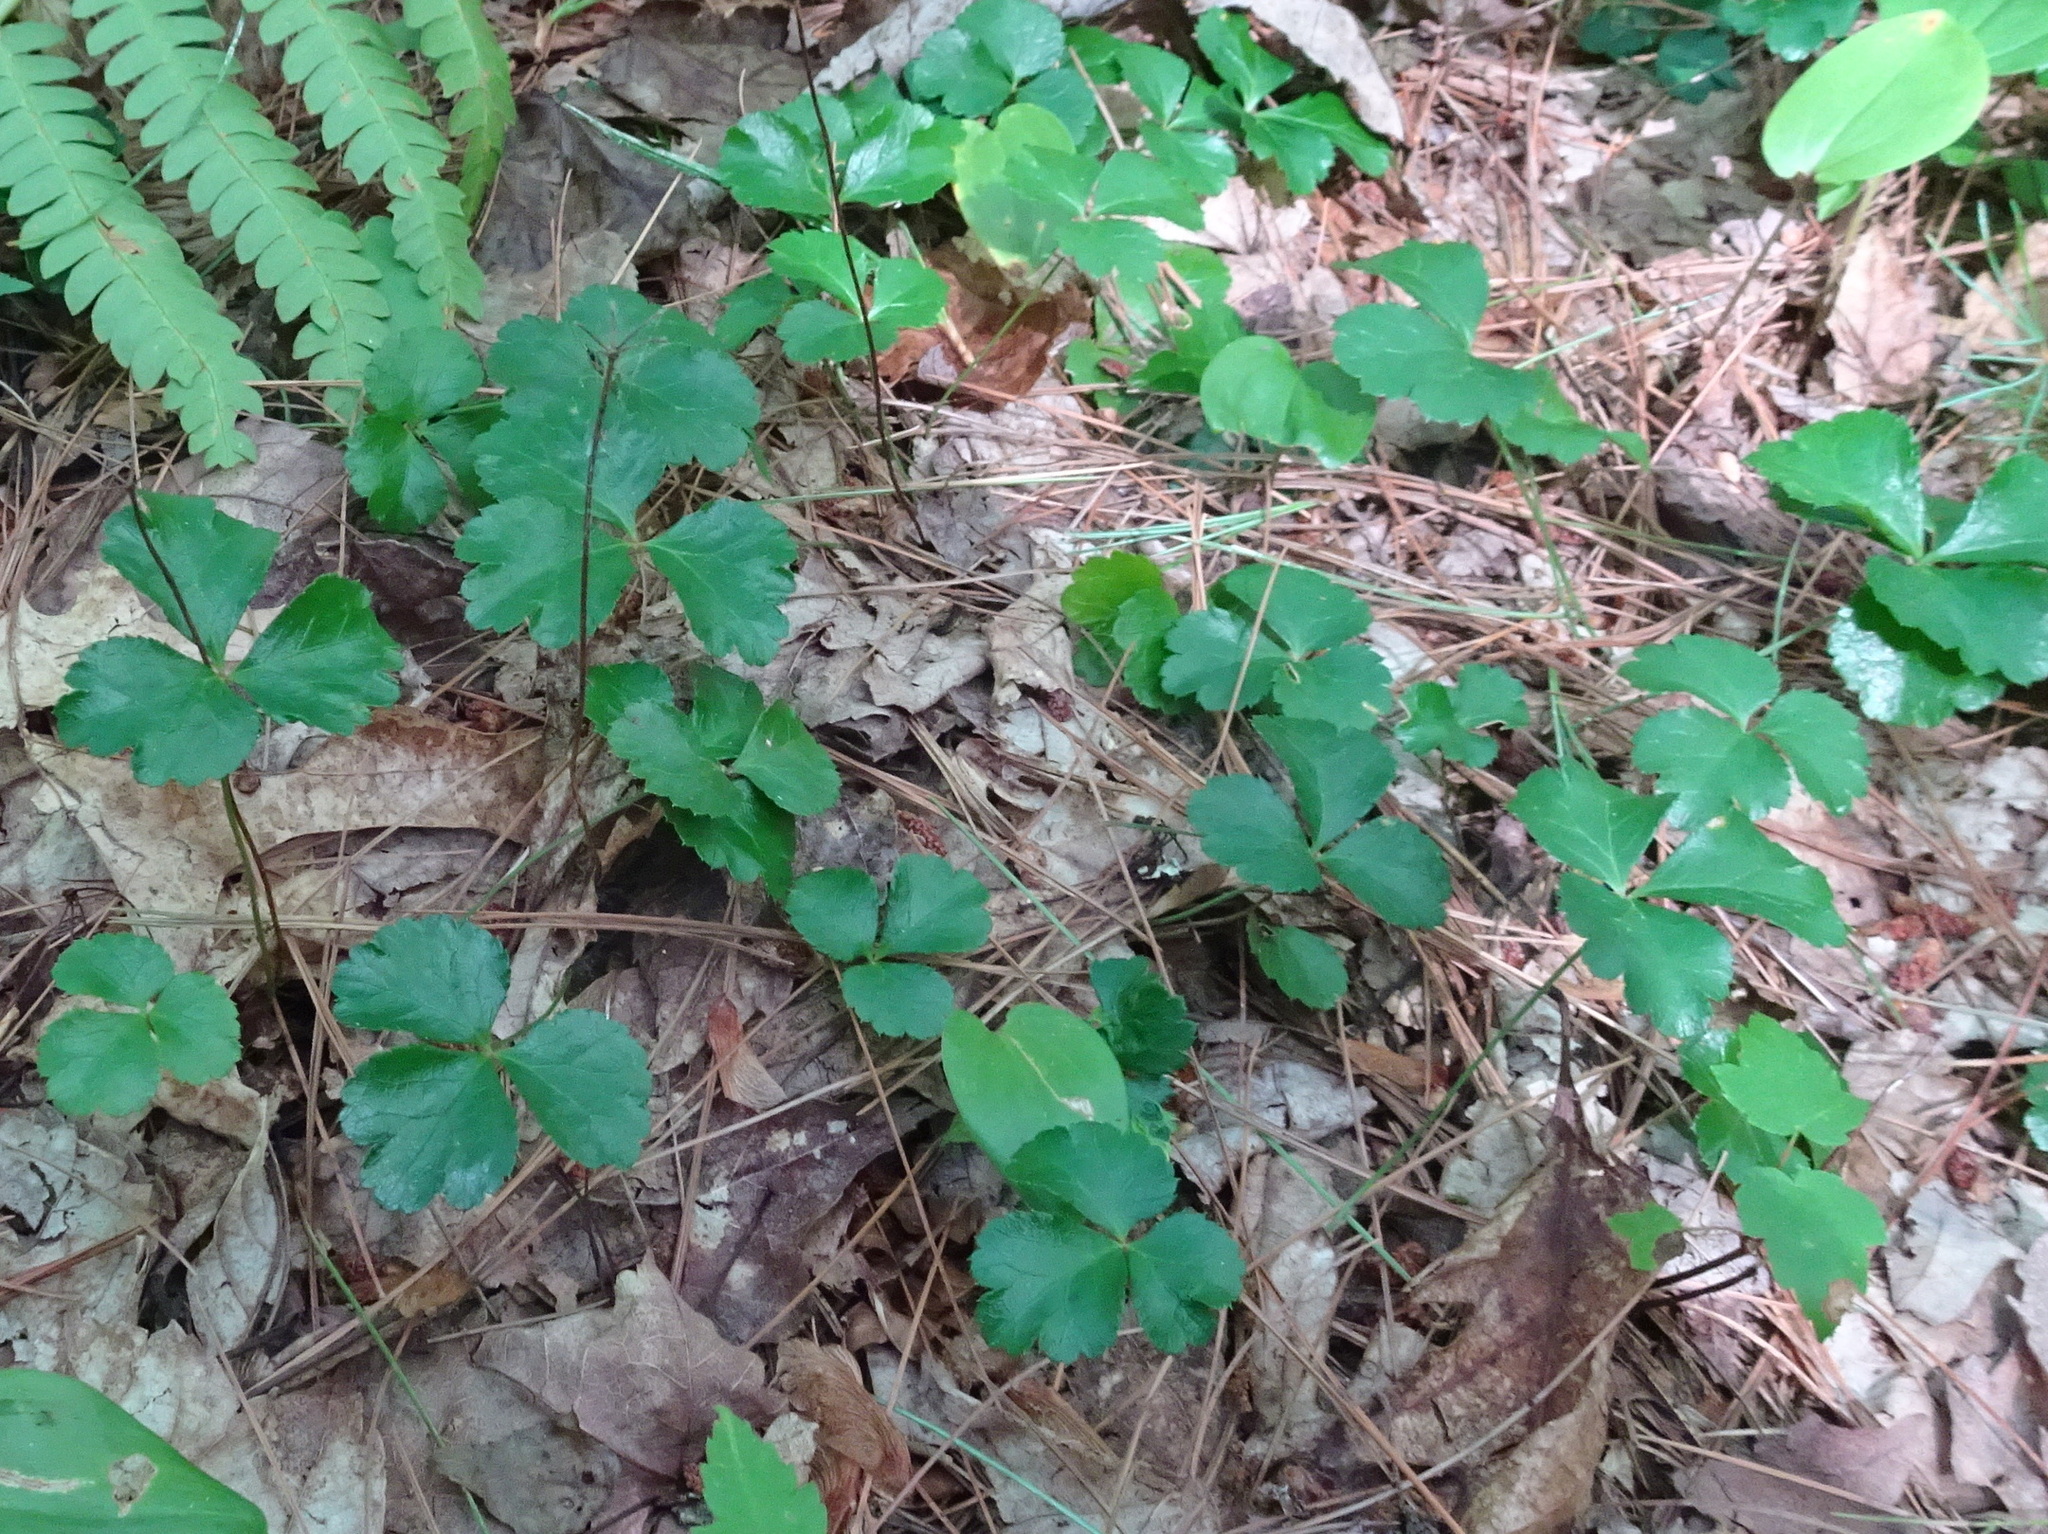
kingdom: Plantae
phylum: Tracheophyta
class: Magnoliopsida
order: Ranunculales
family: Ranunculaceae
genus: Coptis
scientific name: Coptis trifolia
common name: Canker-root
